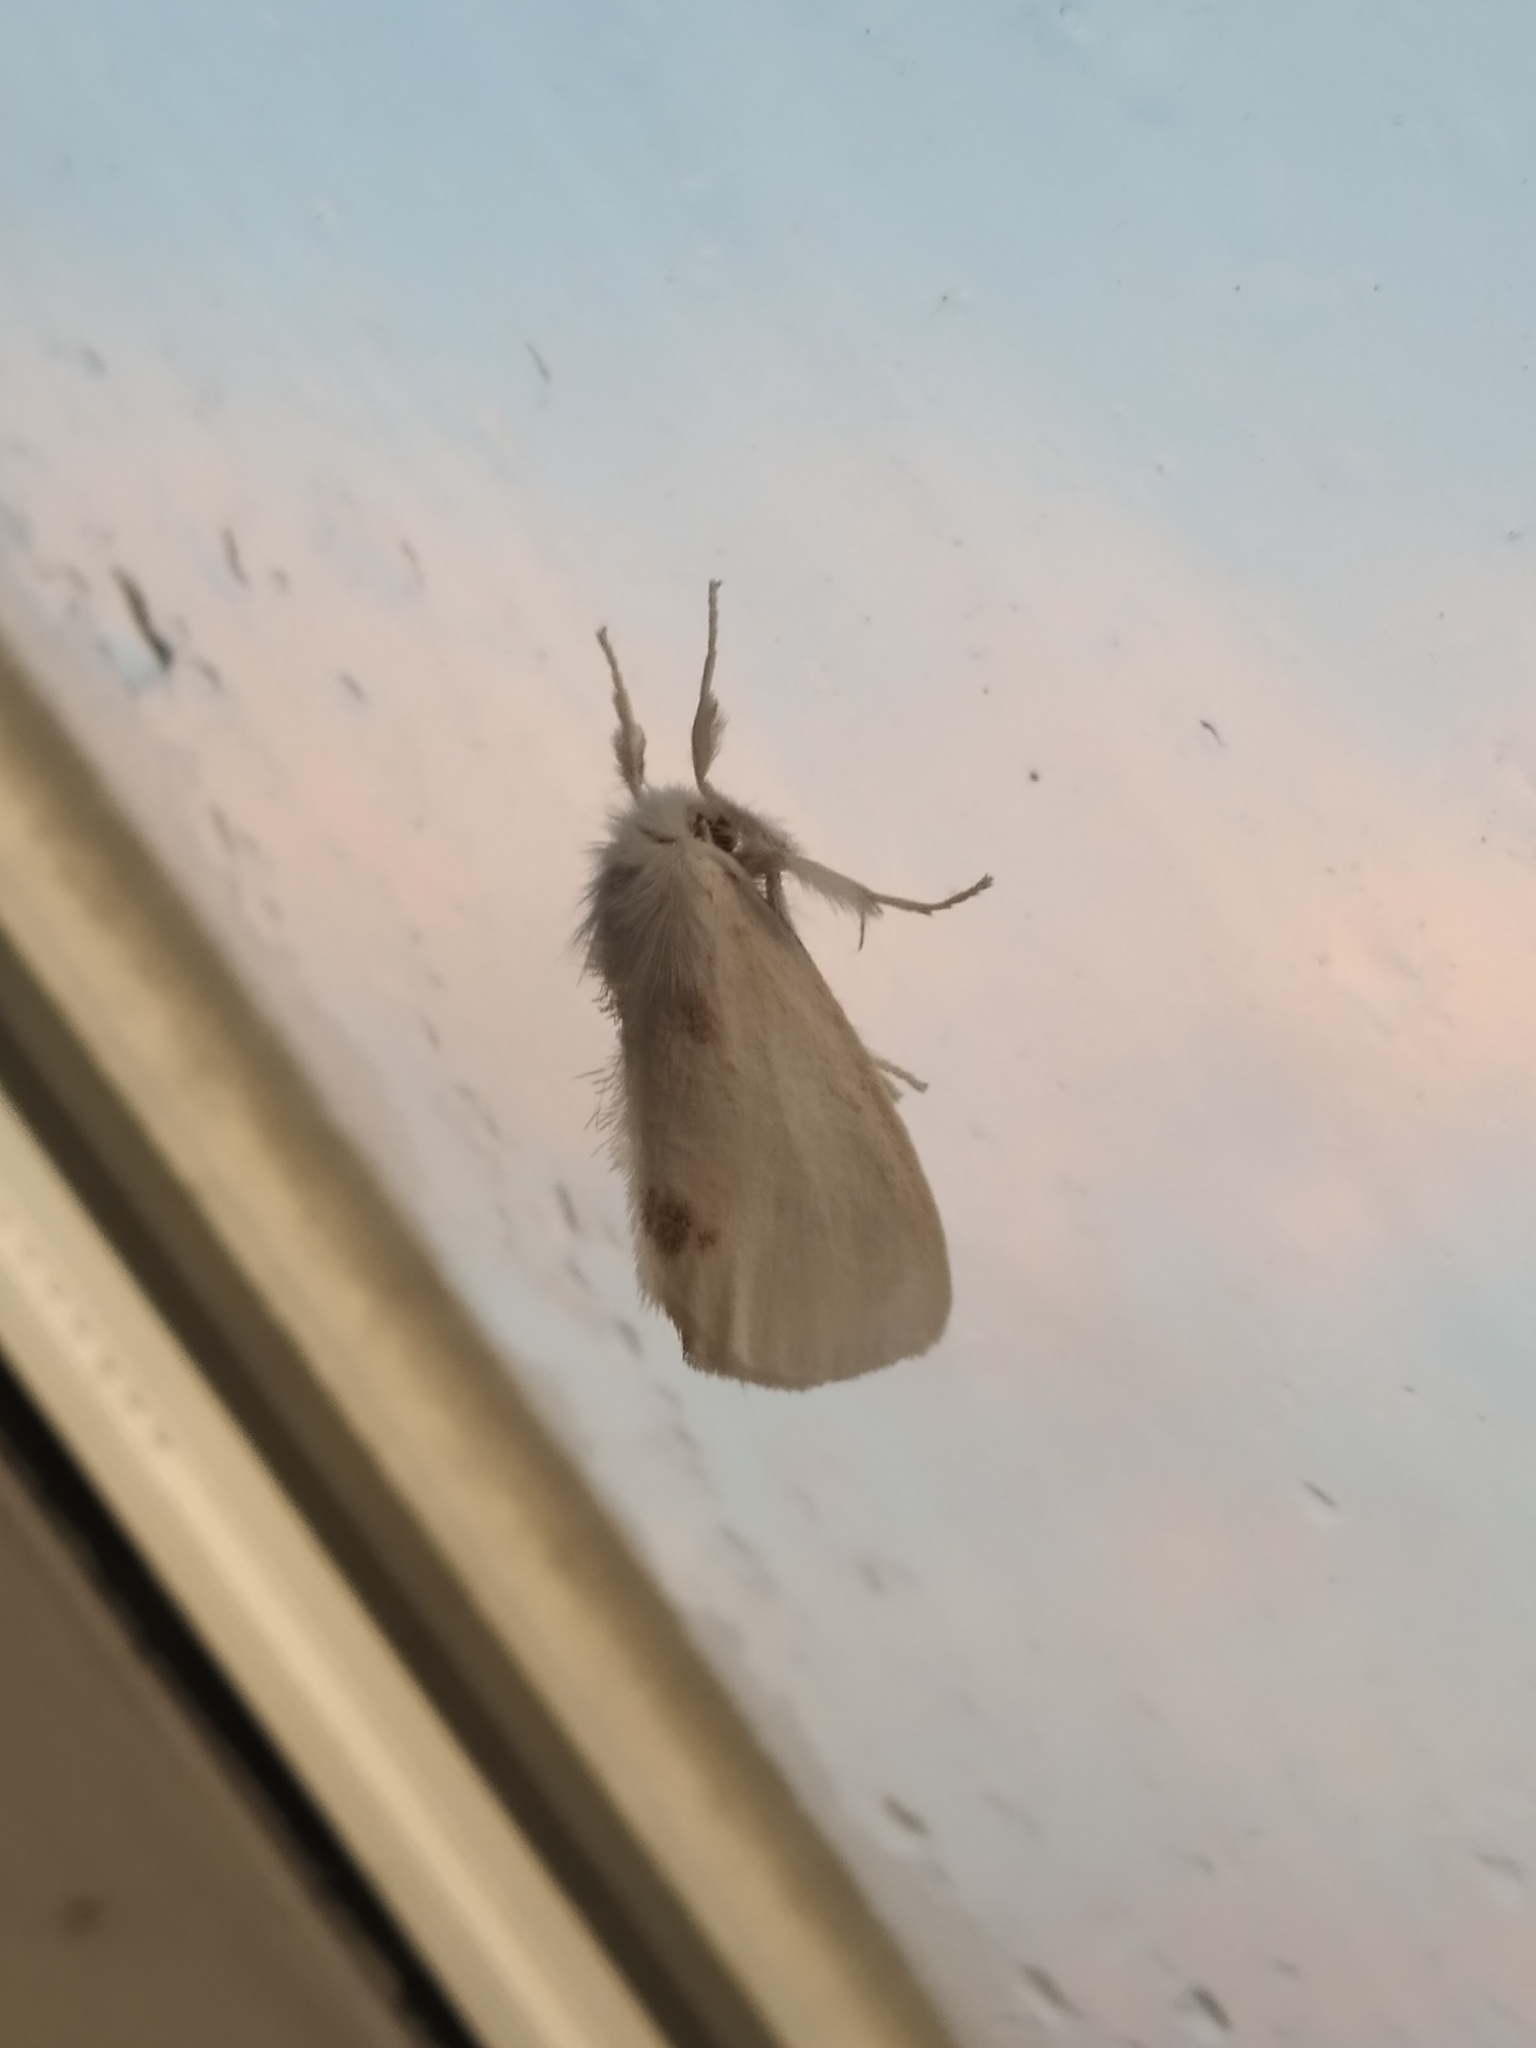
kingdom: Animalia
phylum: Arthropoda
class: Insecta
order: Lepidoptera
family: Erebidae
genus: Sphrageidus
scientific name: Sphrageidus similis
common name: Yellow-tail
